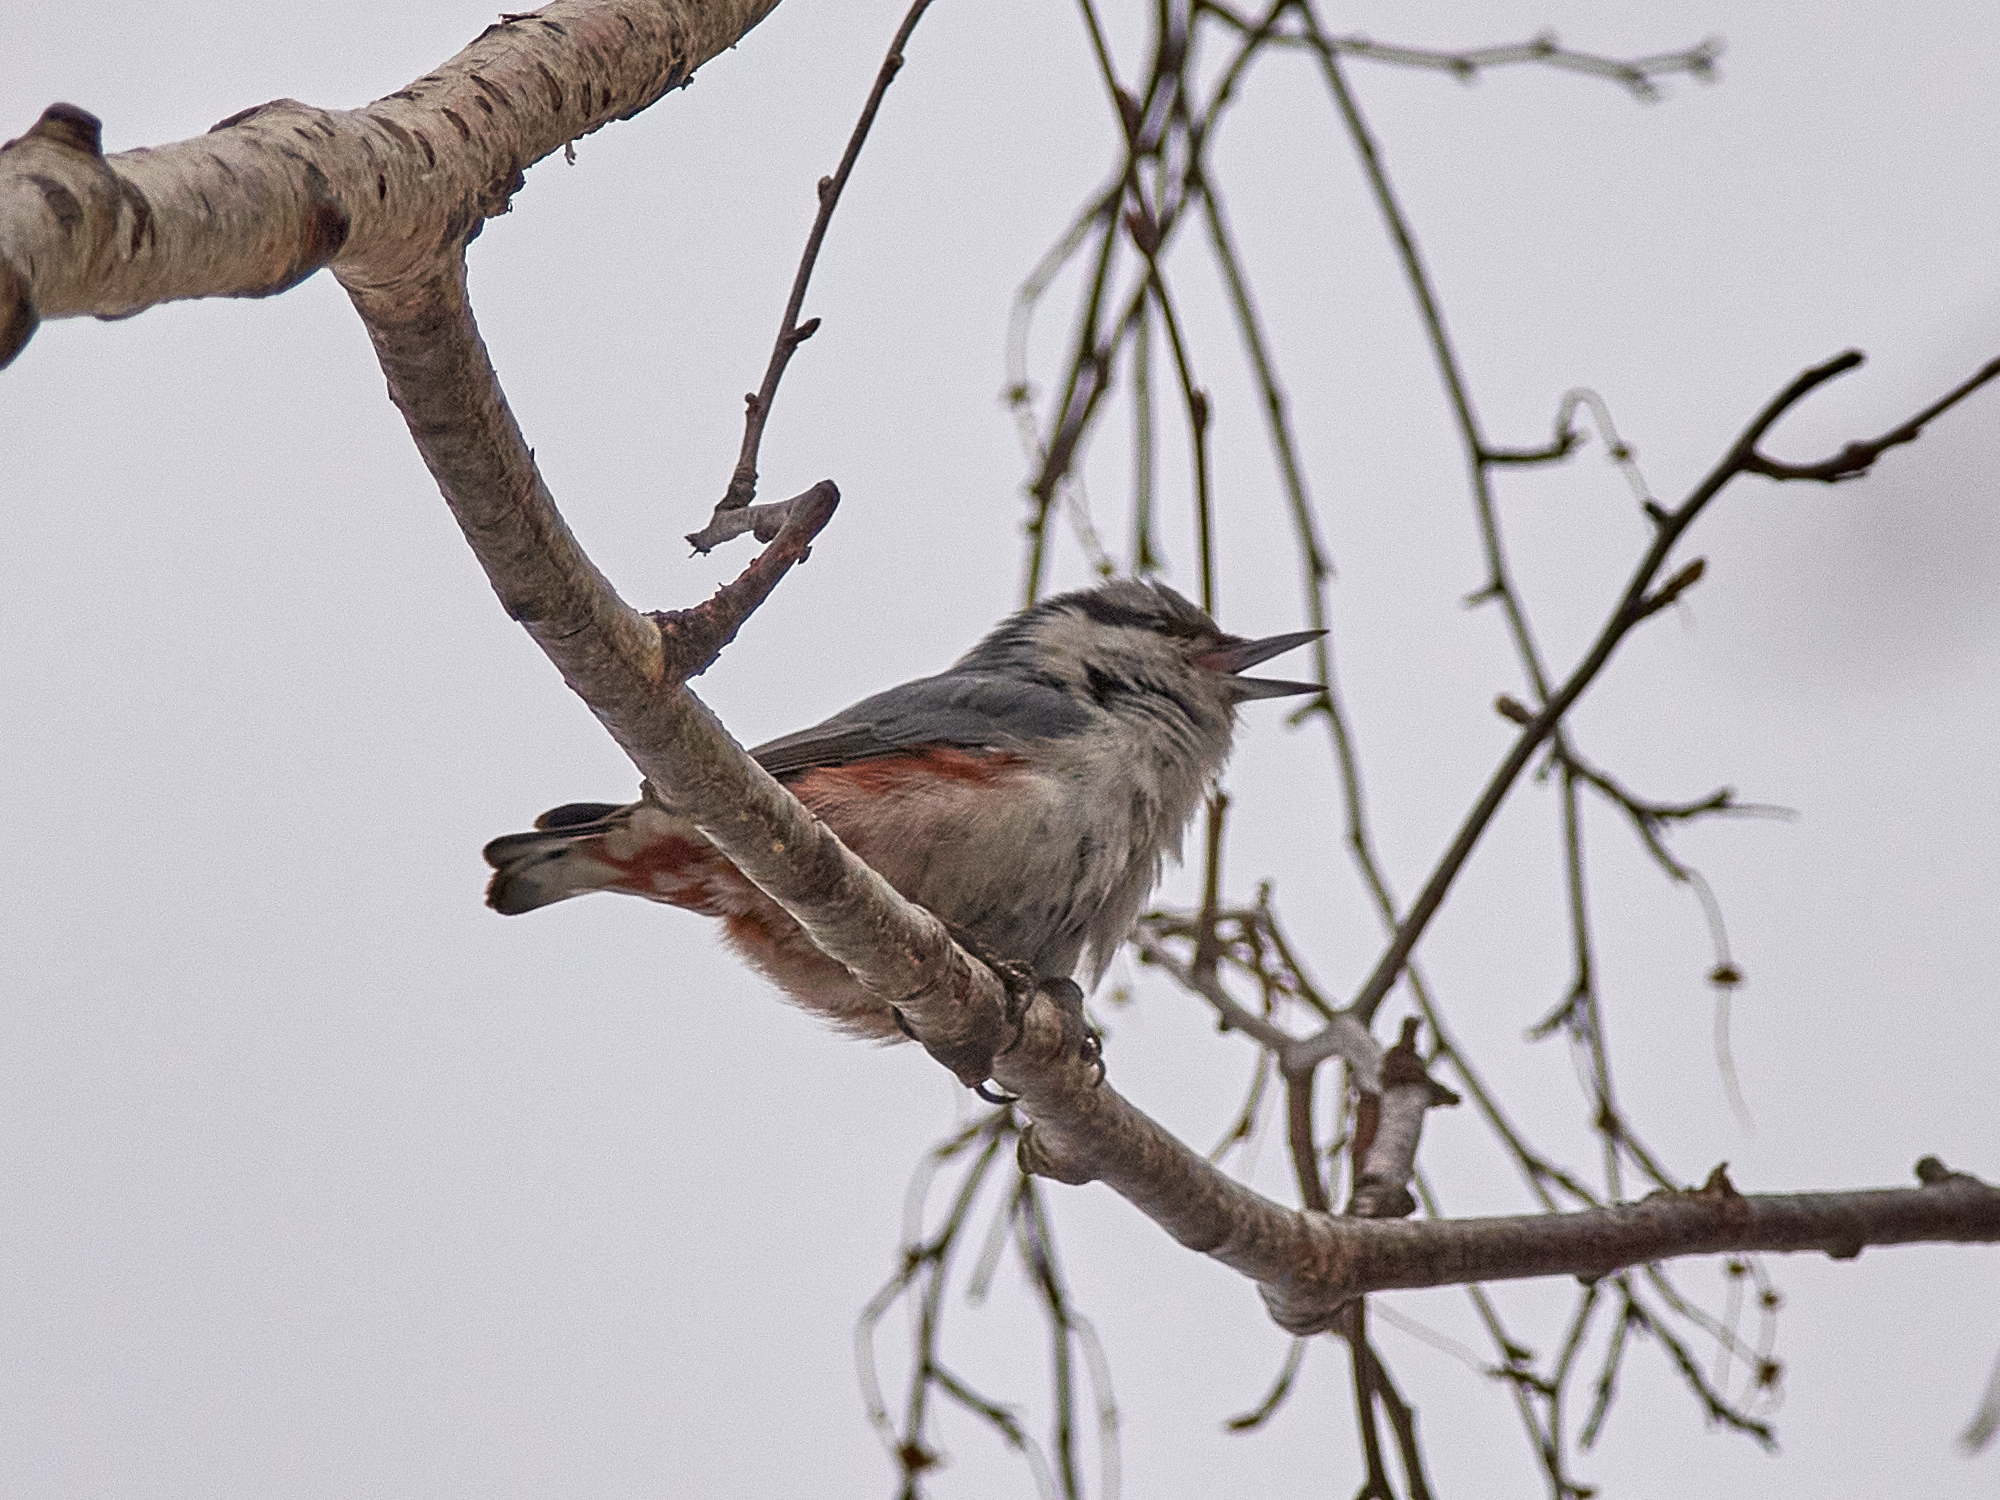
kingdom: Animalia
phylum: Chordata
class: Aves
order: Passeriformes
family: Sittidae
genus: Sitta
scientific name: Sitta europaea
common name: Eurasian nuthatch
